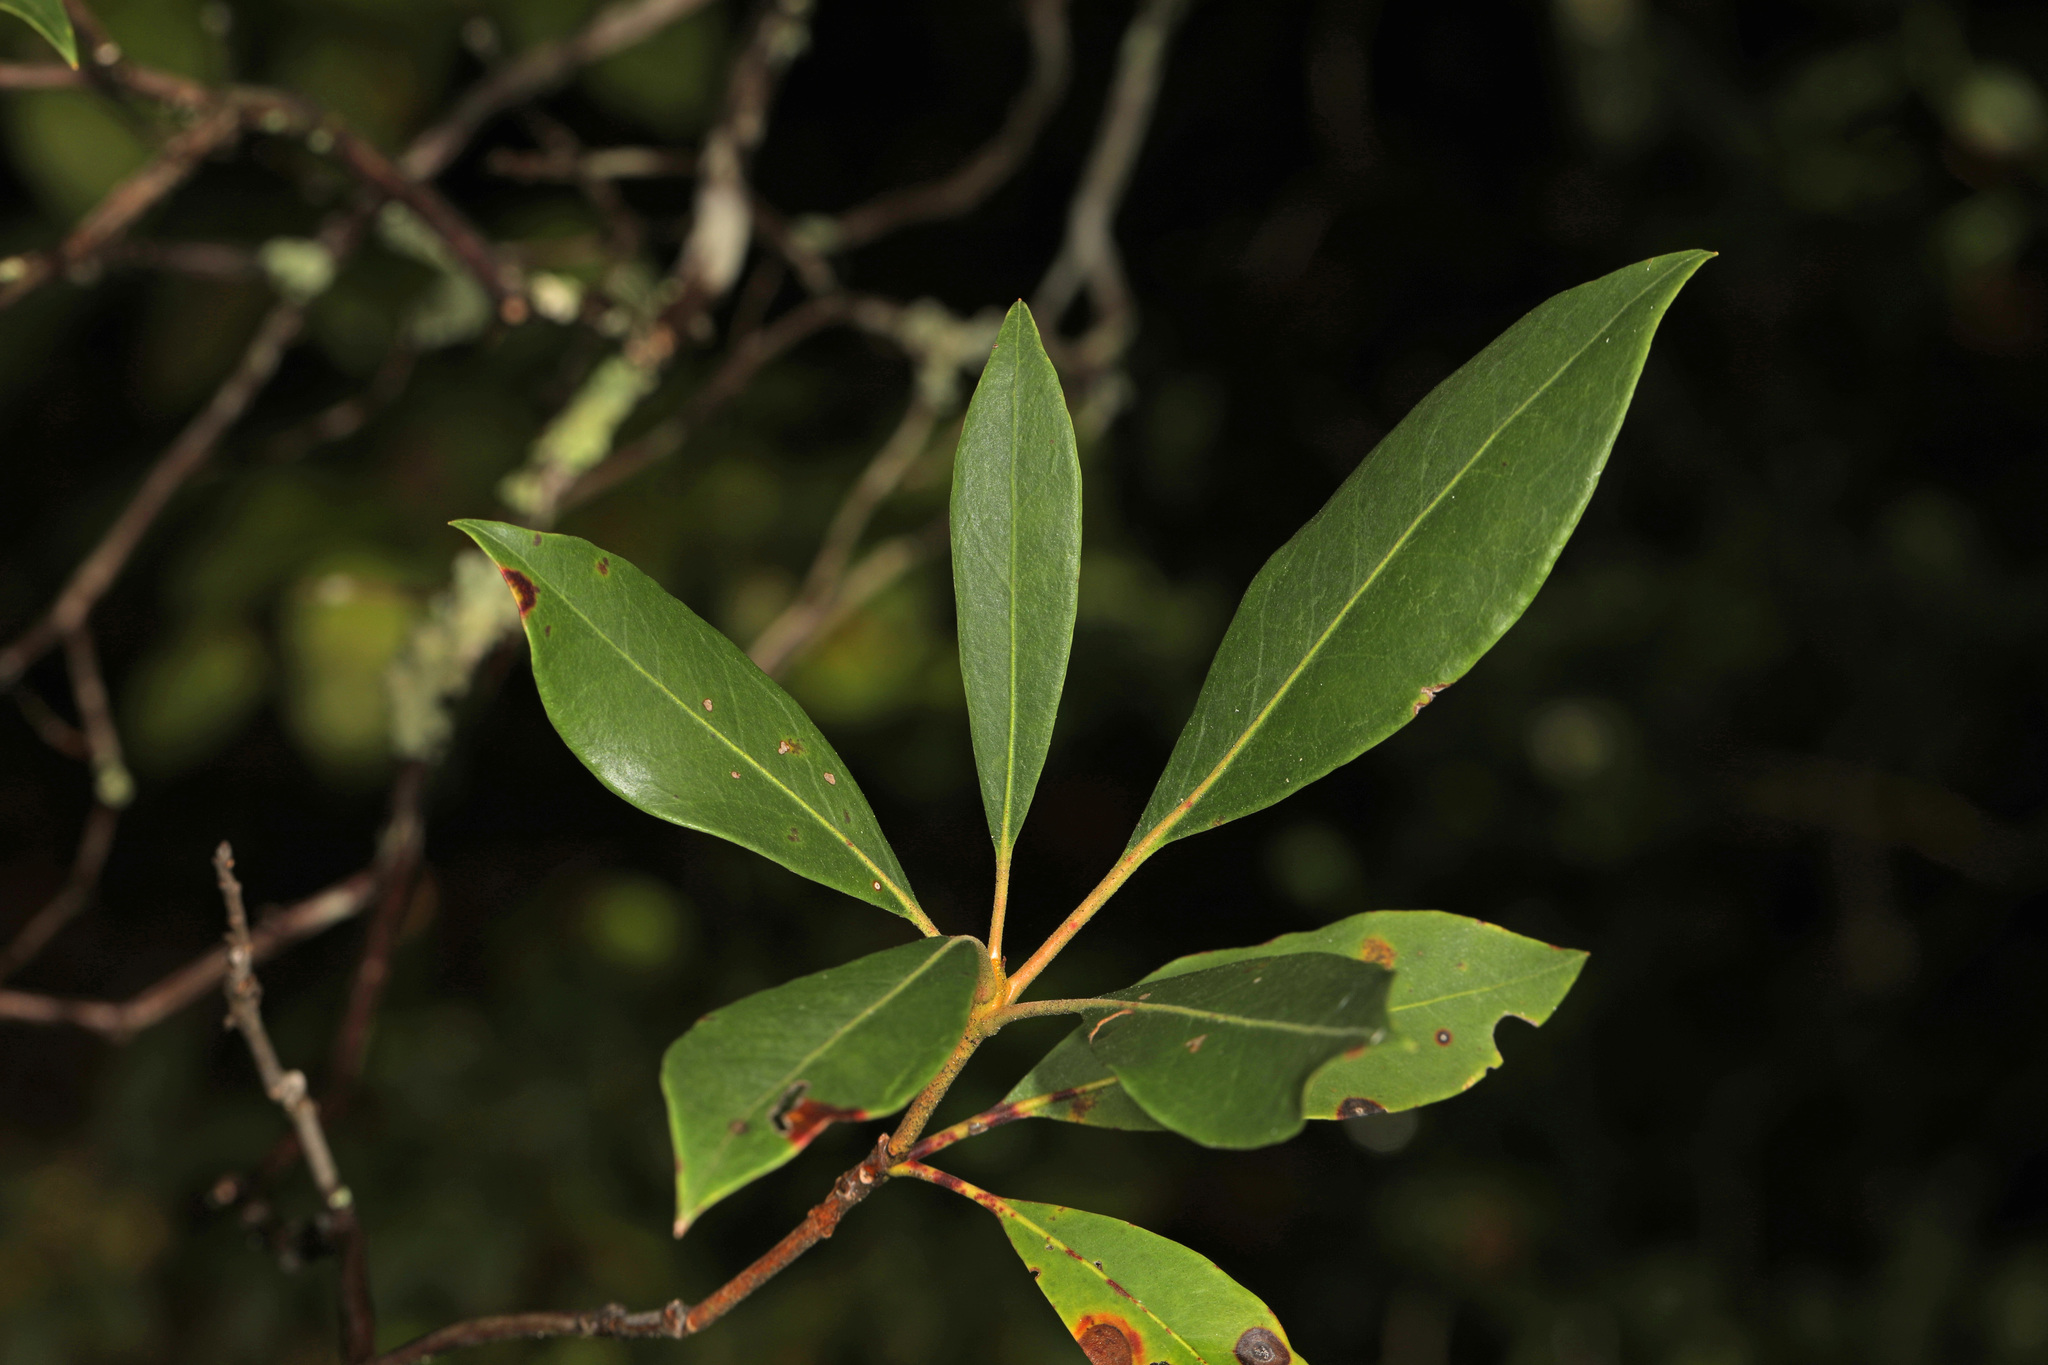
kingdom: Plantae
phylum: Tracheophyta
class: Magnoliopsida
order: Ericales
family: Ericaceae
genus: Kalmia
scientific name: Kalmia latifolia
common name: Mountain-laurel
